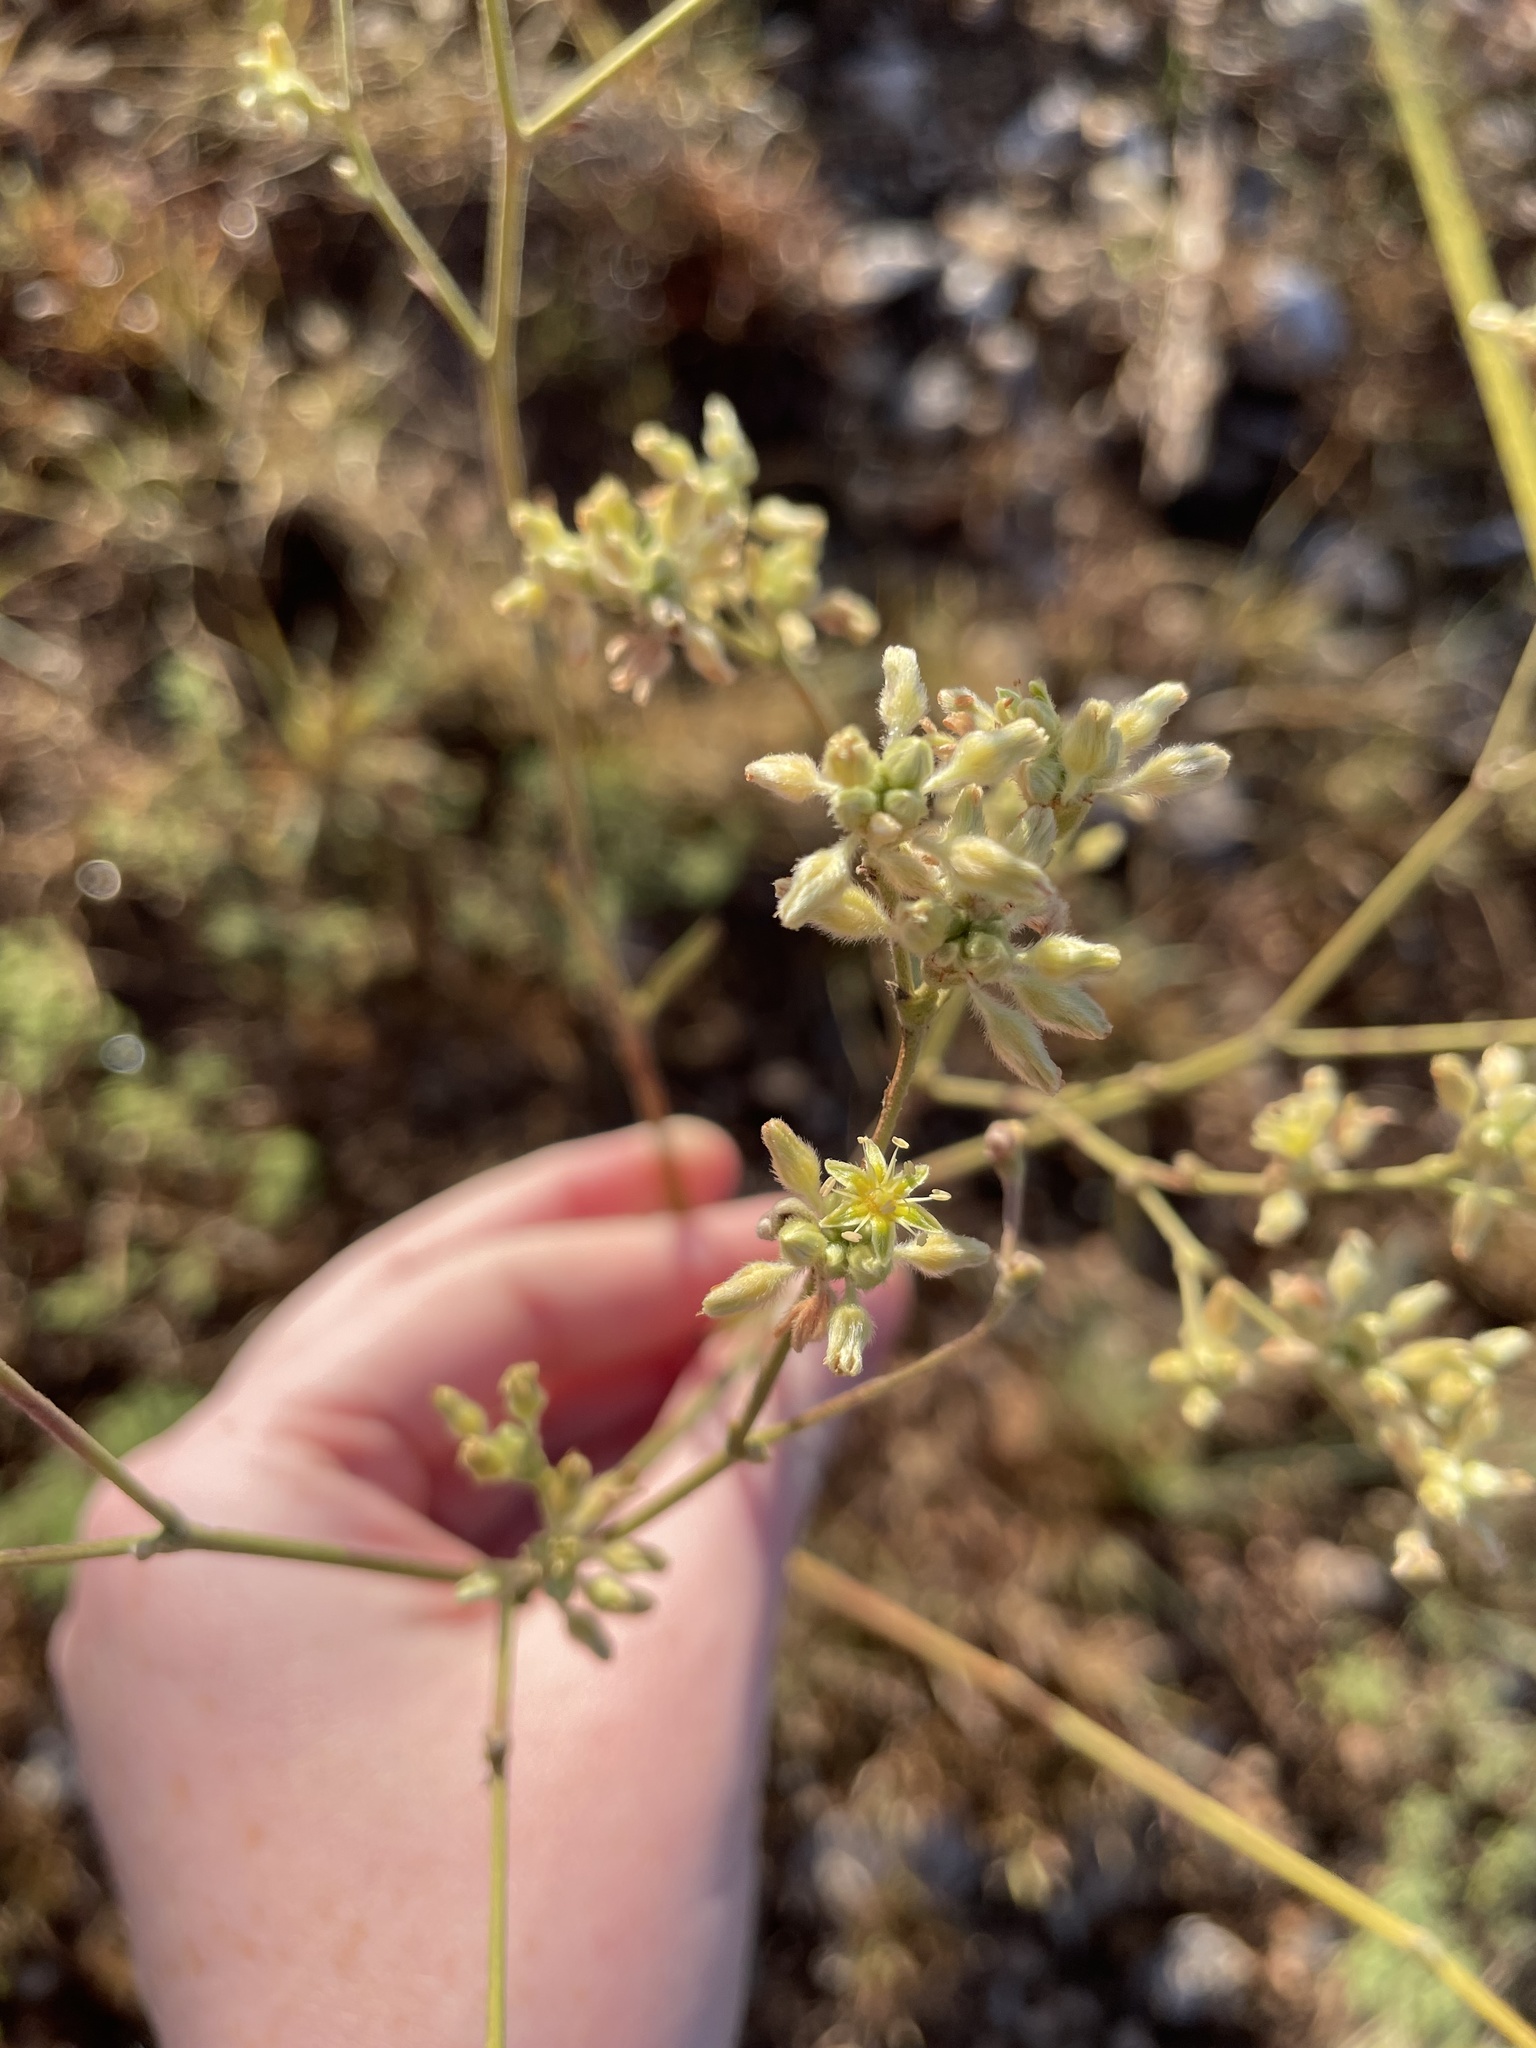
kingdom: Plantae
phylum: Tracheophyta
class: Magnoliopsida
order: Caryophyllales
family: Polygonaceae
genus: Eriogonum
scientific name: Eriogonum longifolium
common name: Longleaf wild buckwheat
